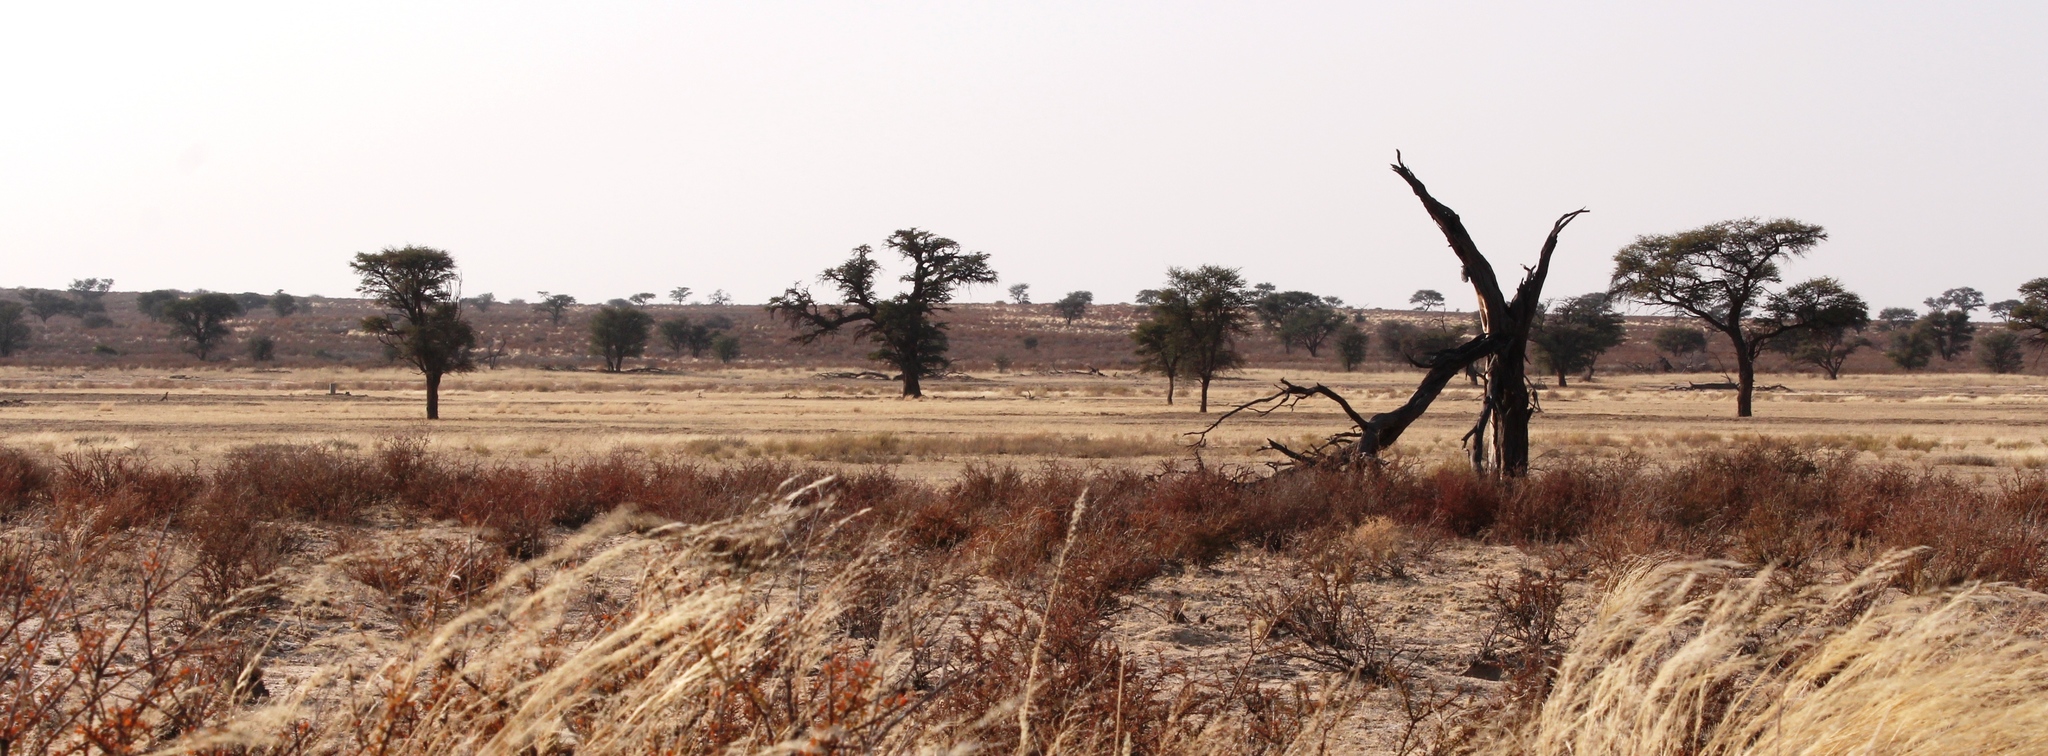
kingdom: Plantae
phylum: Tracheophyta
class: Magnoliopsida
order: Fabales
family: Fabaceae
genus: Vachellia
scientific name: Vachellia erioloba
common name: Camel thorn
